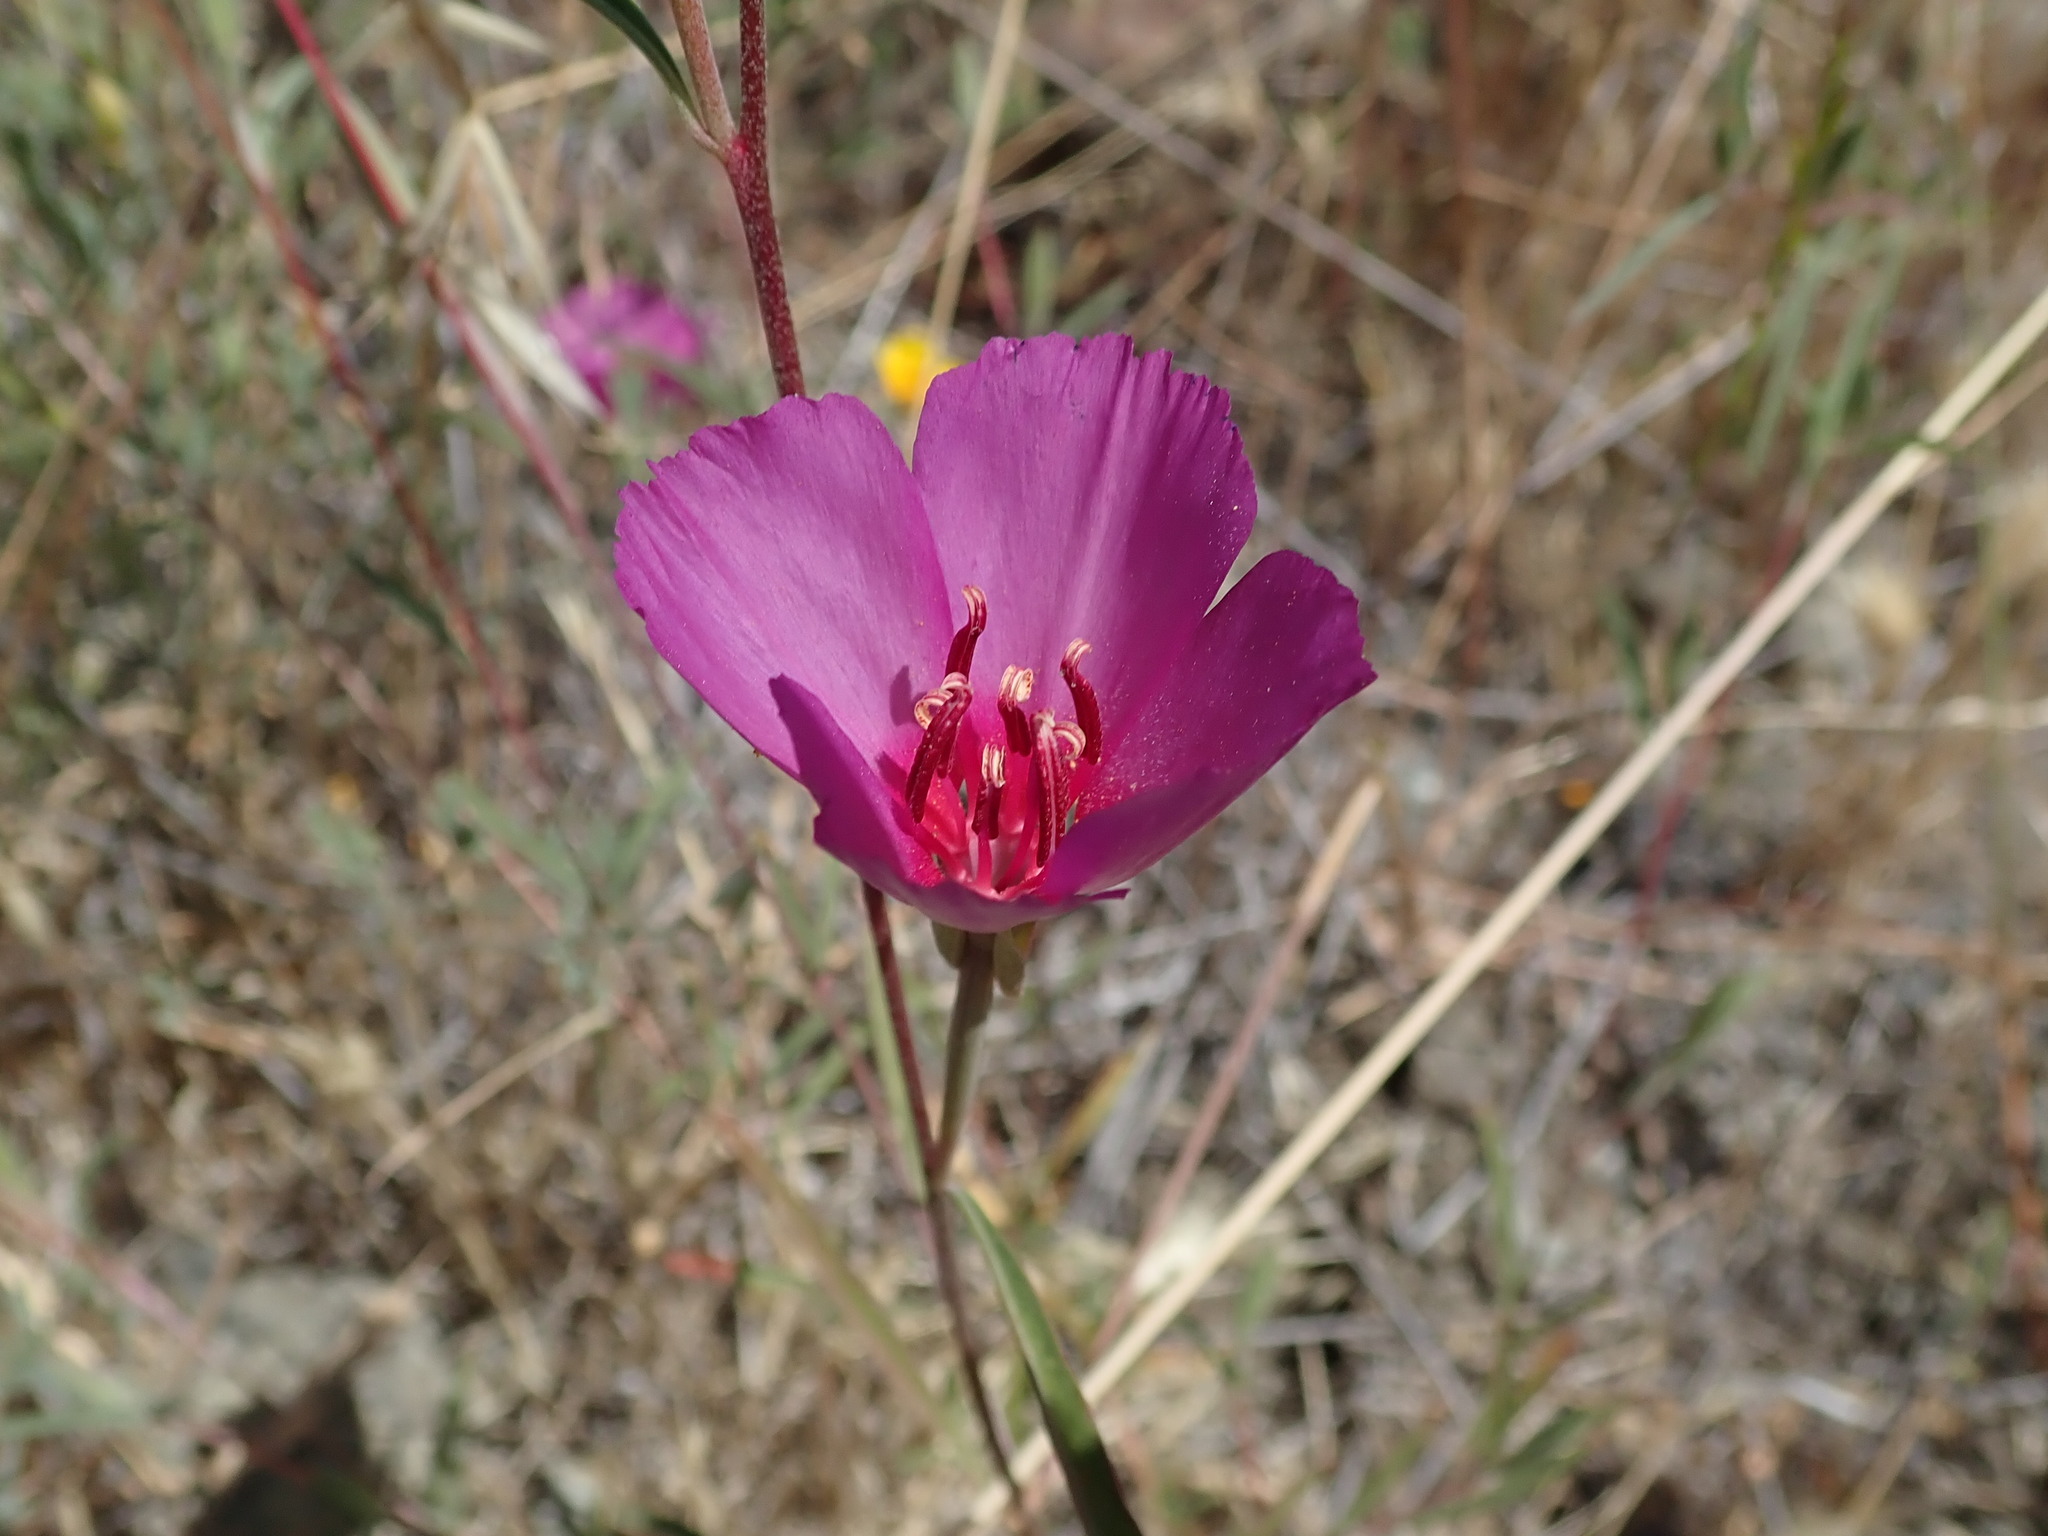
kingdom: Plantae
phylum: Tracheophyta
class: Magnoliopsida
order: Myrtales
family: Onagraceae
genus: Clarkia
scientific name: Clarkia rubicunda
